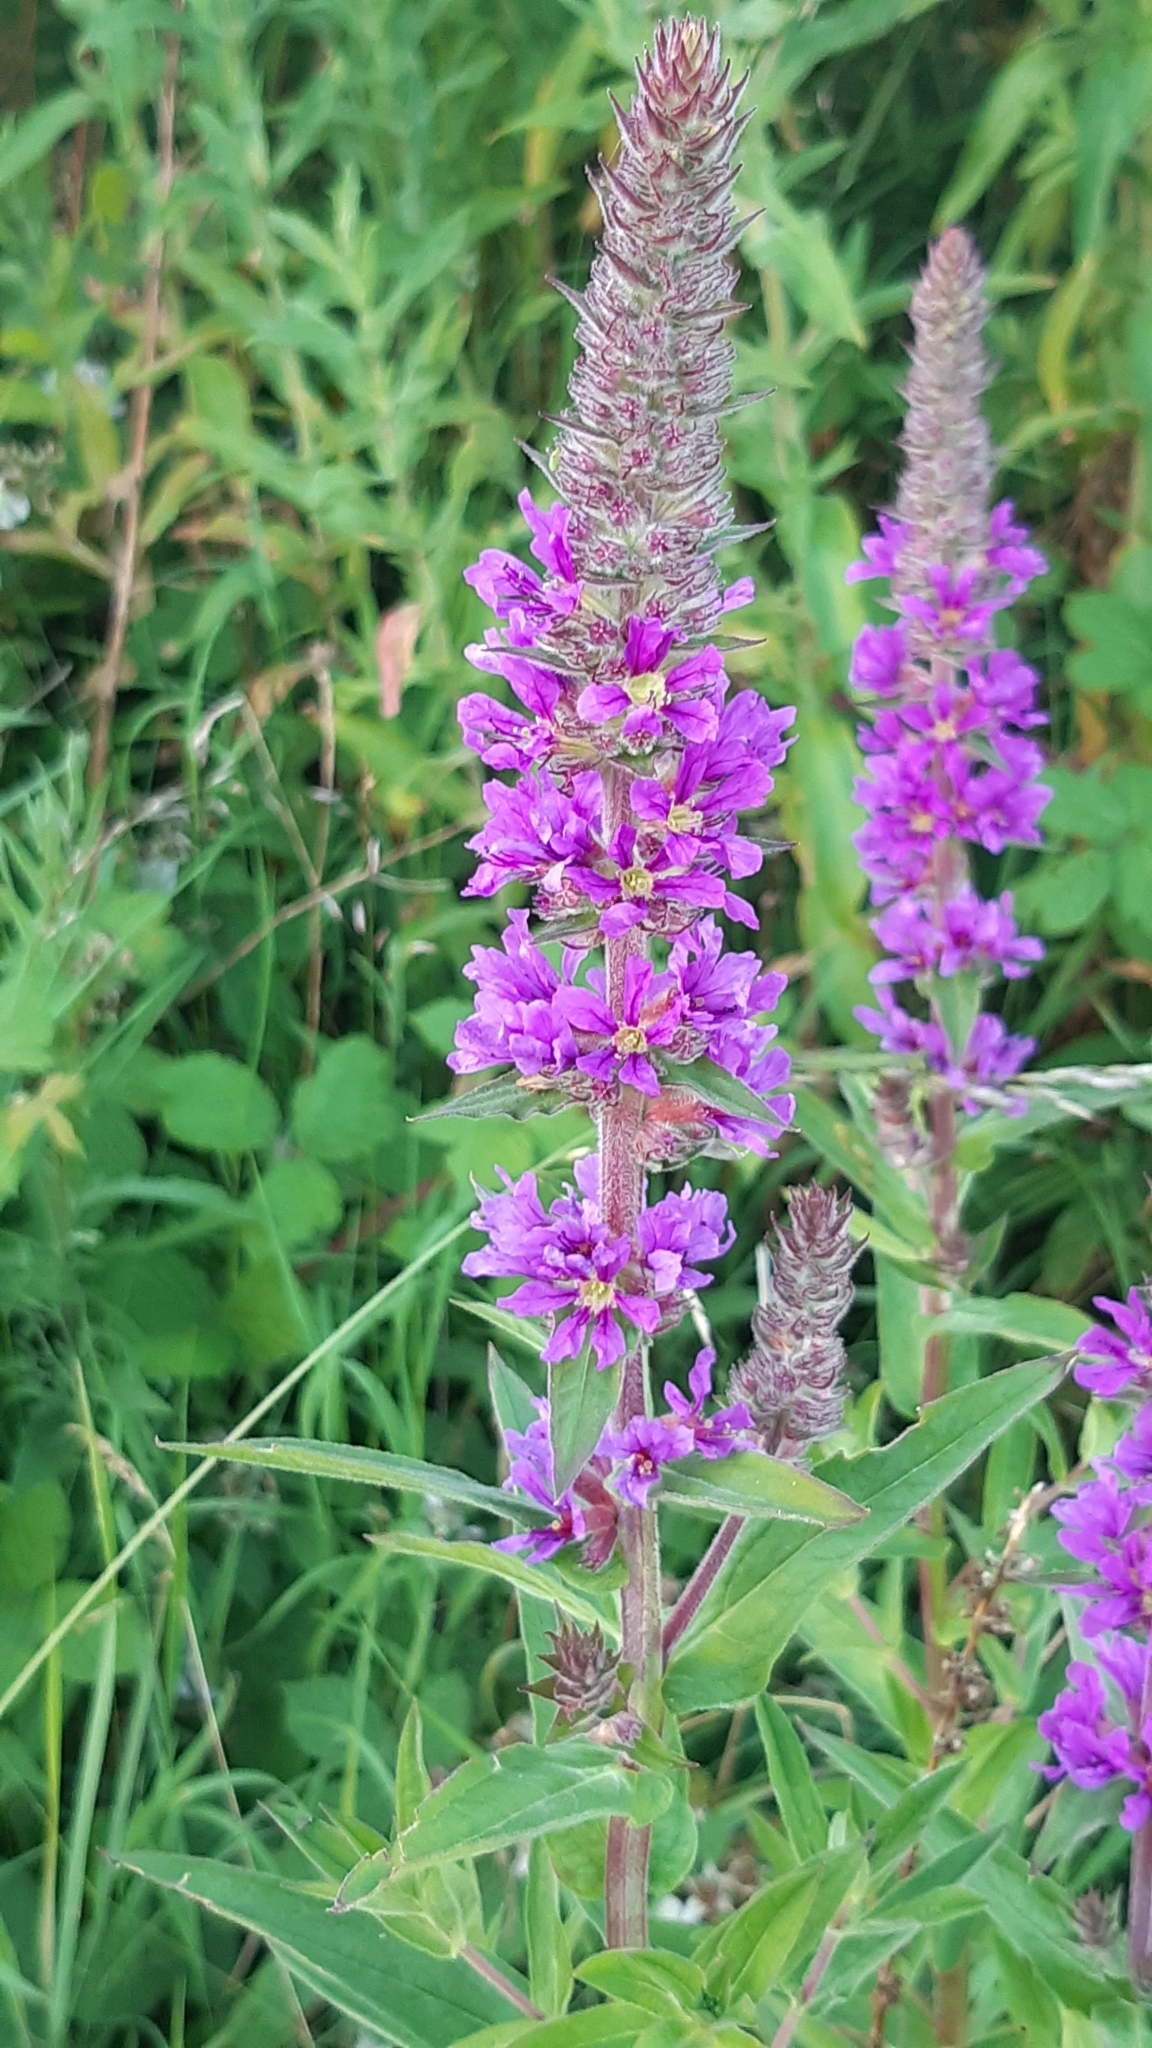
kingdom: Plantae
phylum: Tracheophyta
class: Magnoliopsida
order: Myrtales
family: Lythraceae
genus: Lythrum
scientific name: Lythrum salicaria
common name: Purple loosestrife
